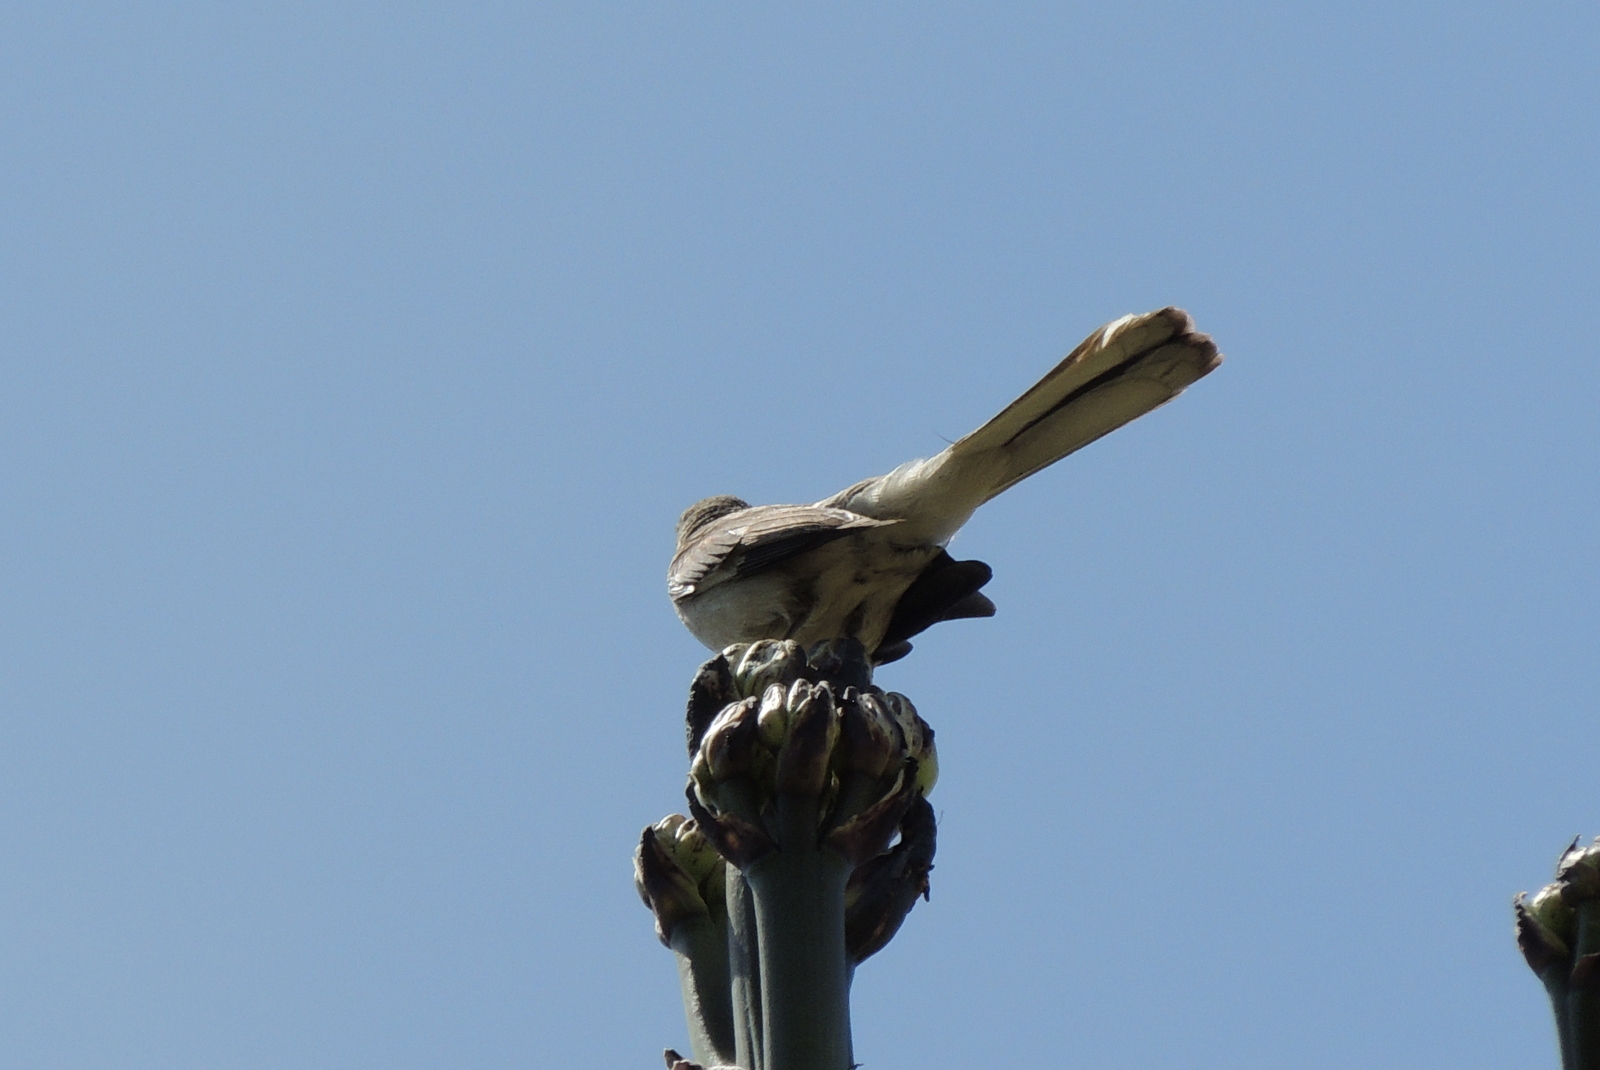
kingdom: Animalia
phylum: Chordata
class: Aves
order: Passeriformes
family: Mimidae
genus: Mimus
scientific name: Mimus polyglottos
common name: Northern mockingbird
